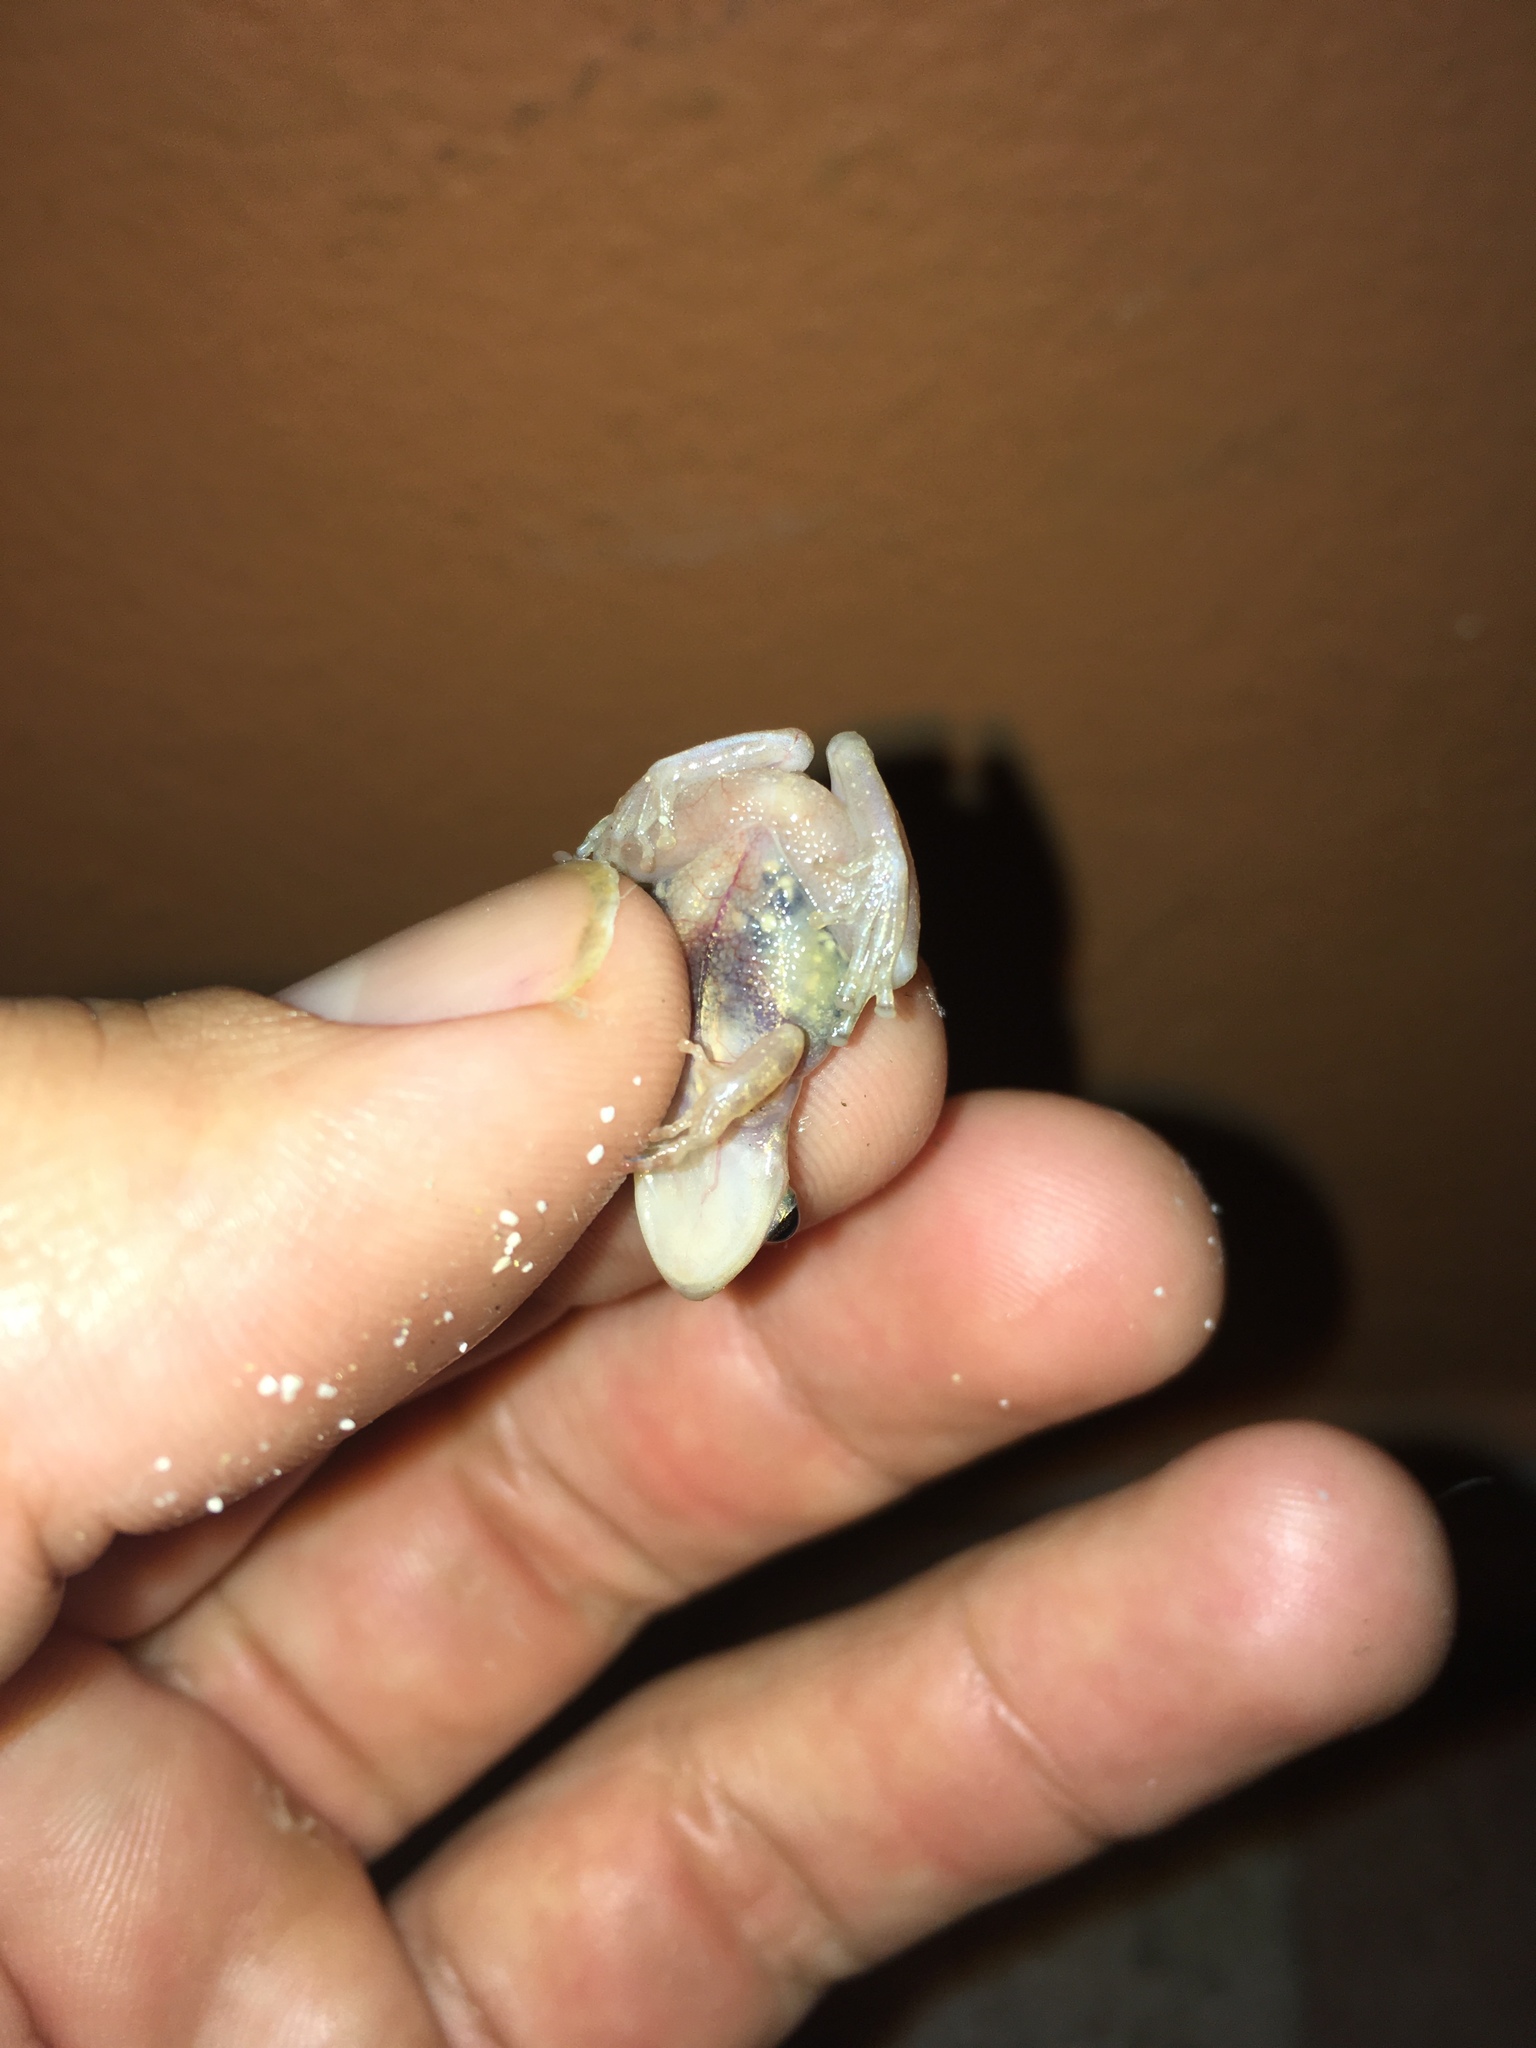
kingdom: Animalia
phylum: Chordata
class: Amphibia
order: Anura
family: Hylidae
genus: Scinax
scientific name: Scinax staufferi
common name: Stauffer's long-nosed treefrog
